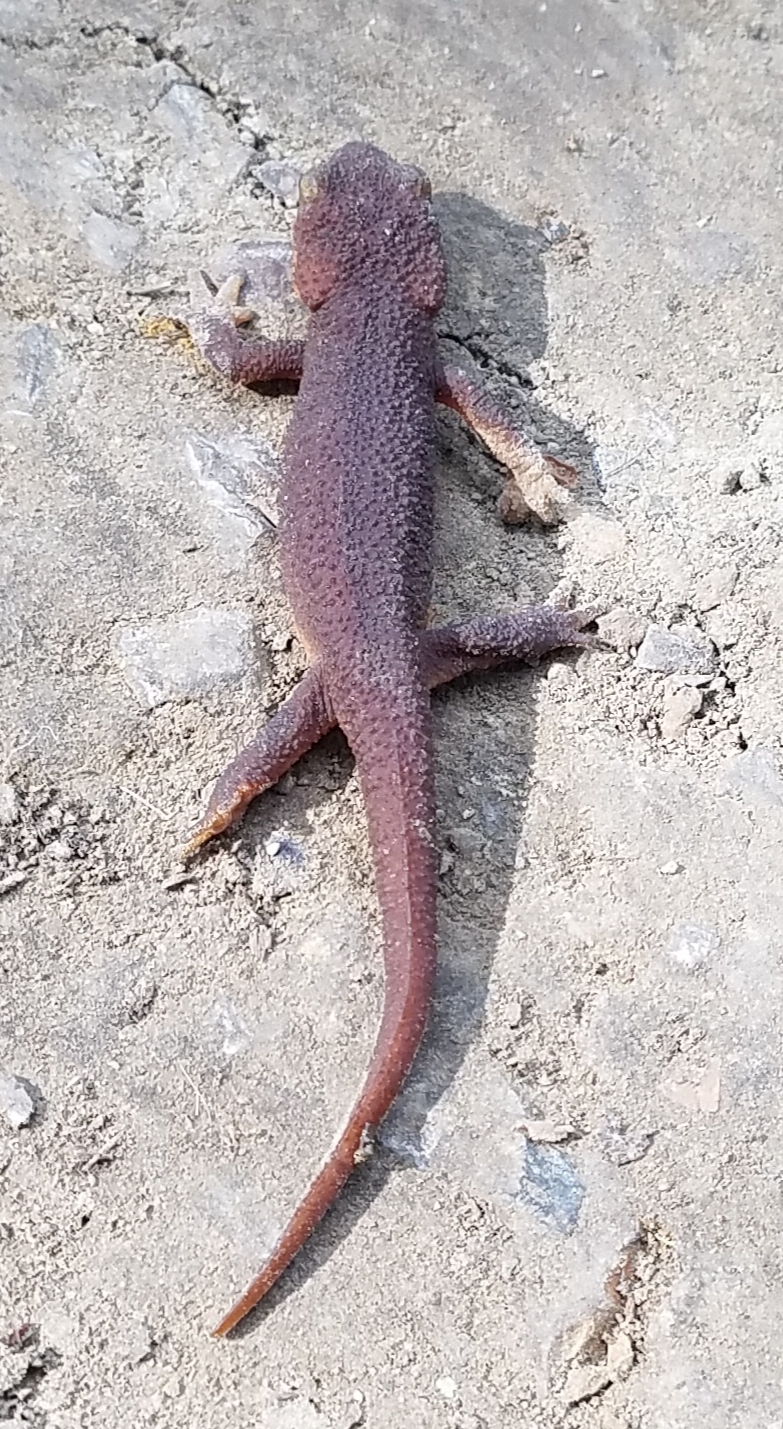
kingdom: Animalia
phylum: Chordata
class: Amphibia
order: Caudata
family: Salamandridae
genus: Taricha
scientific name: Taricha torosa
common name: California newt
